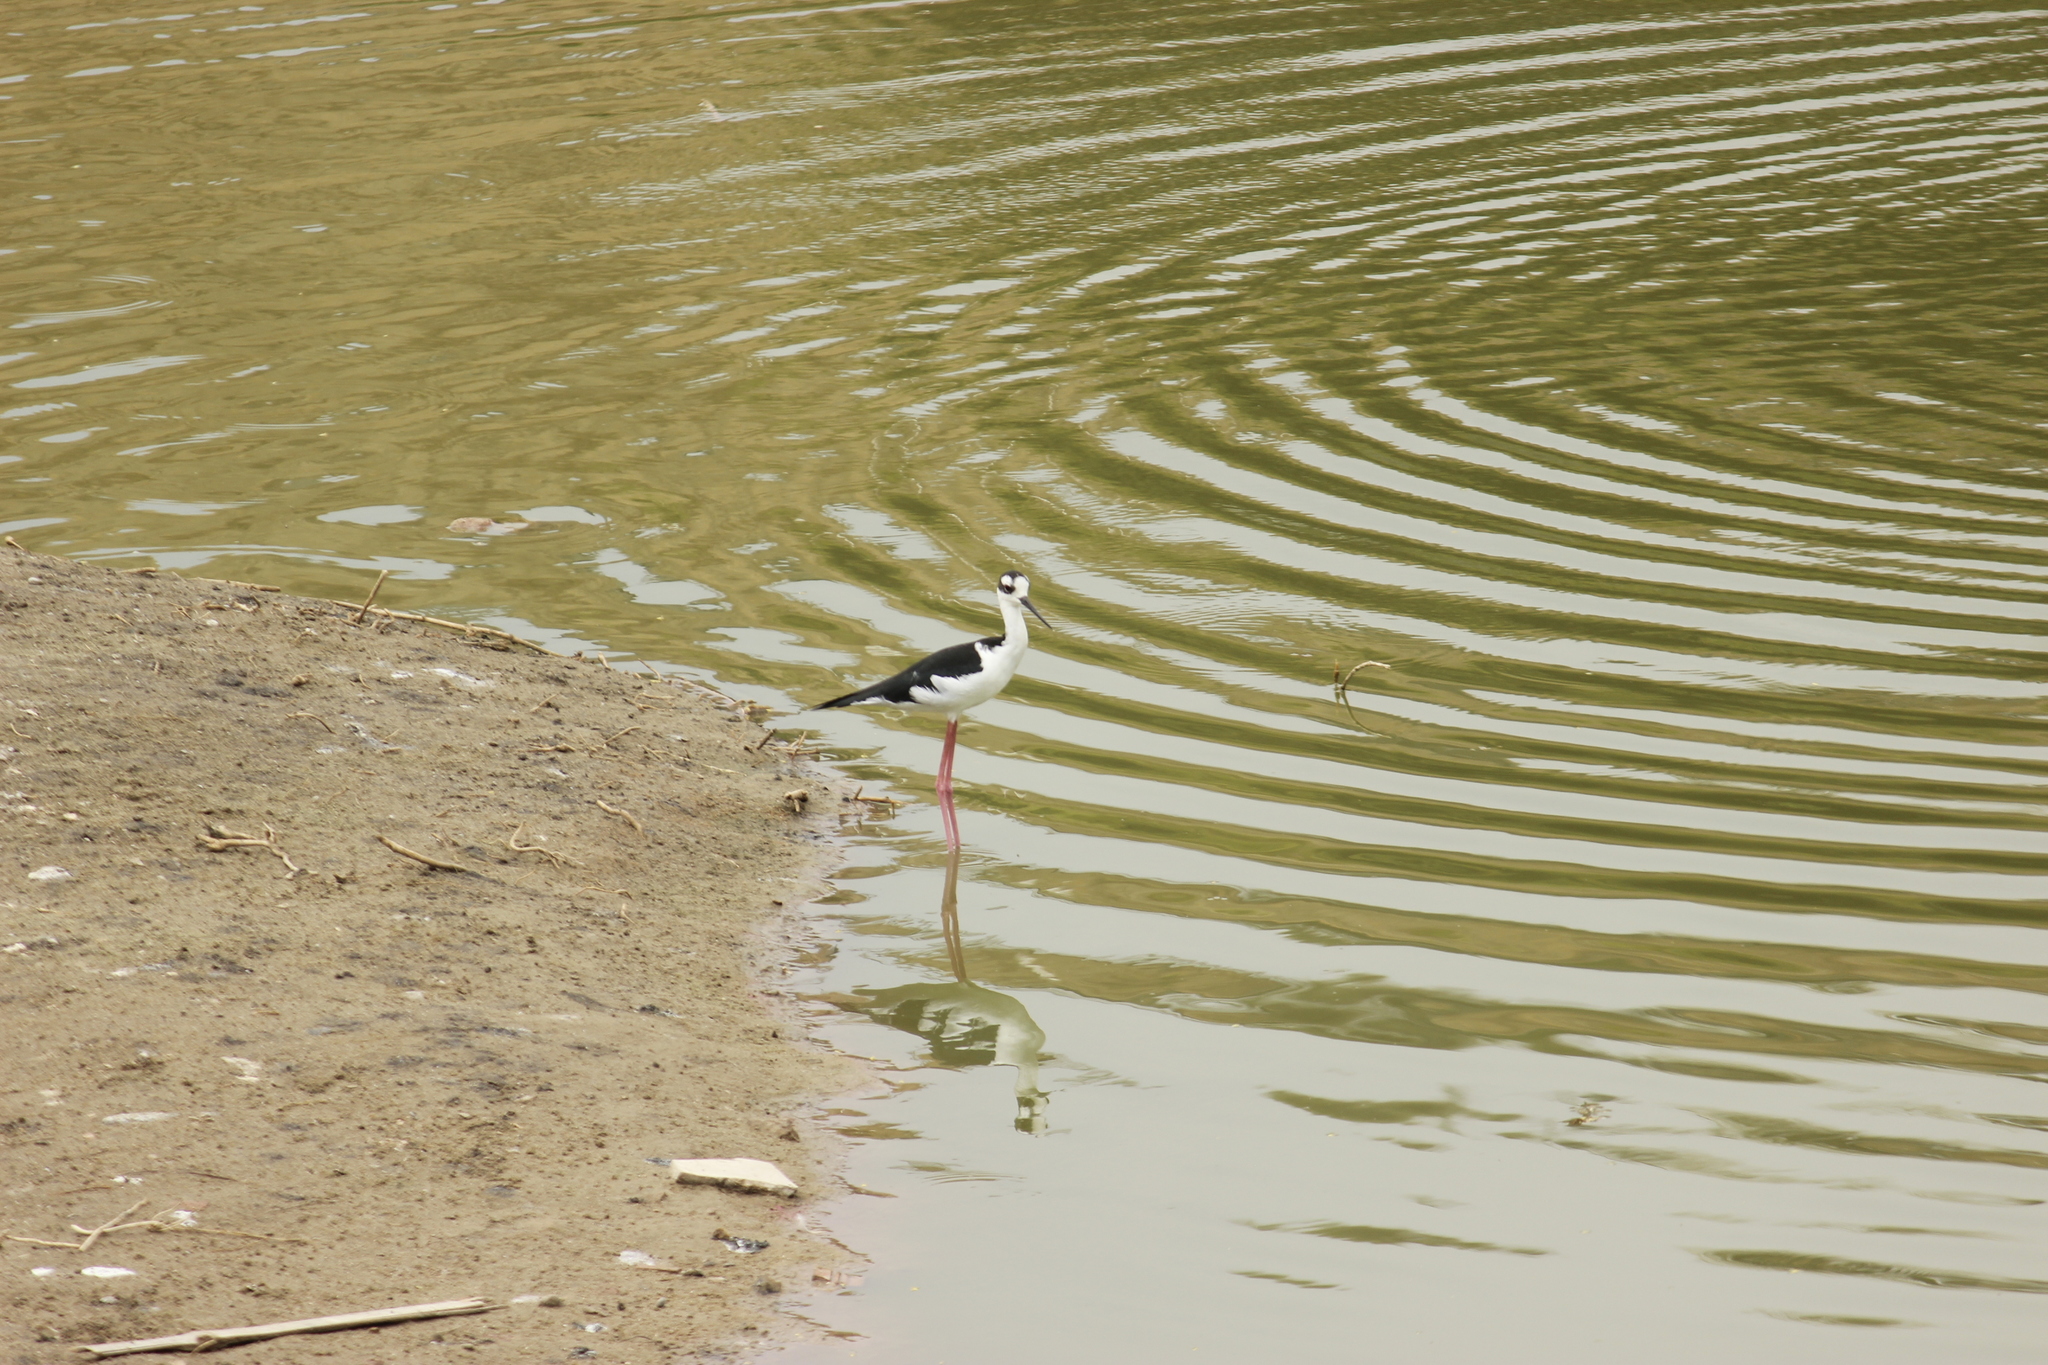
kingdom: Animalia
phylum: Chordata
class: Aves
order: Charadriiformes
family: Recurvirostridae
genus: Himantopus
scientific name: Himantopus mexicanus
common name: Black-necked stilt
